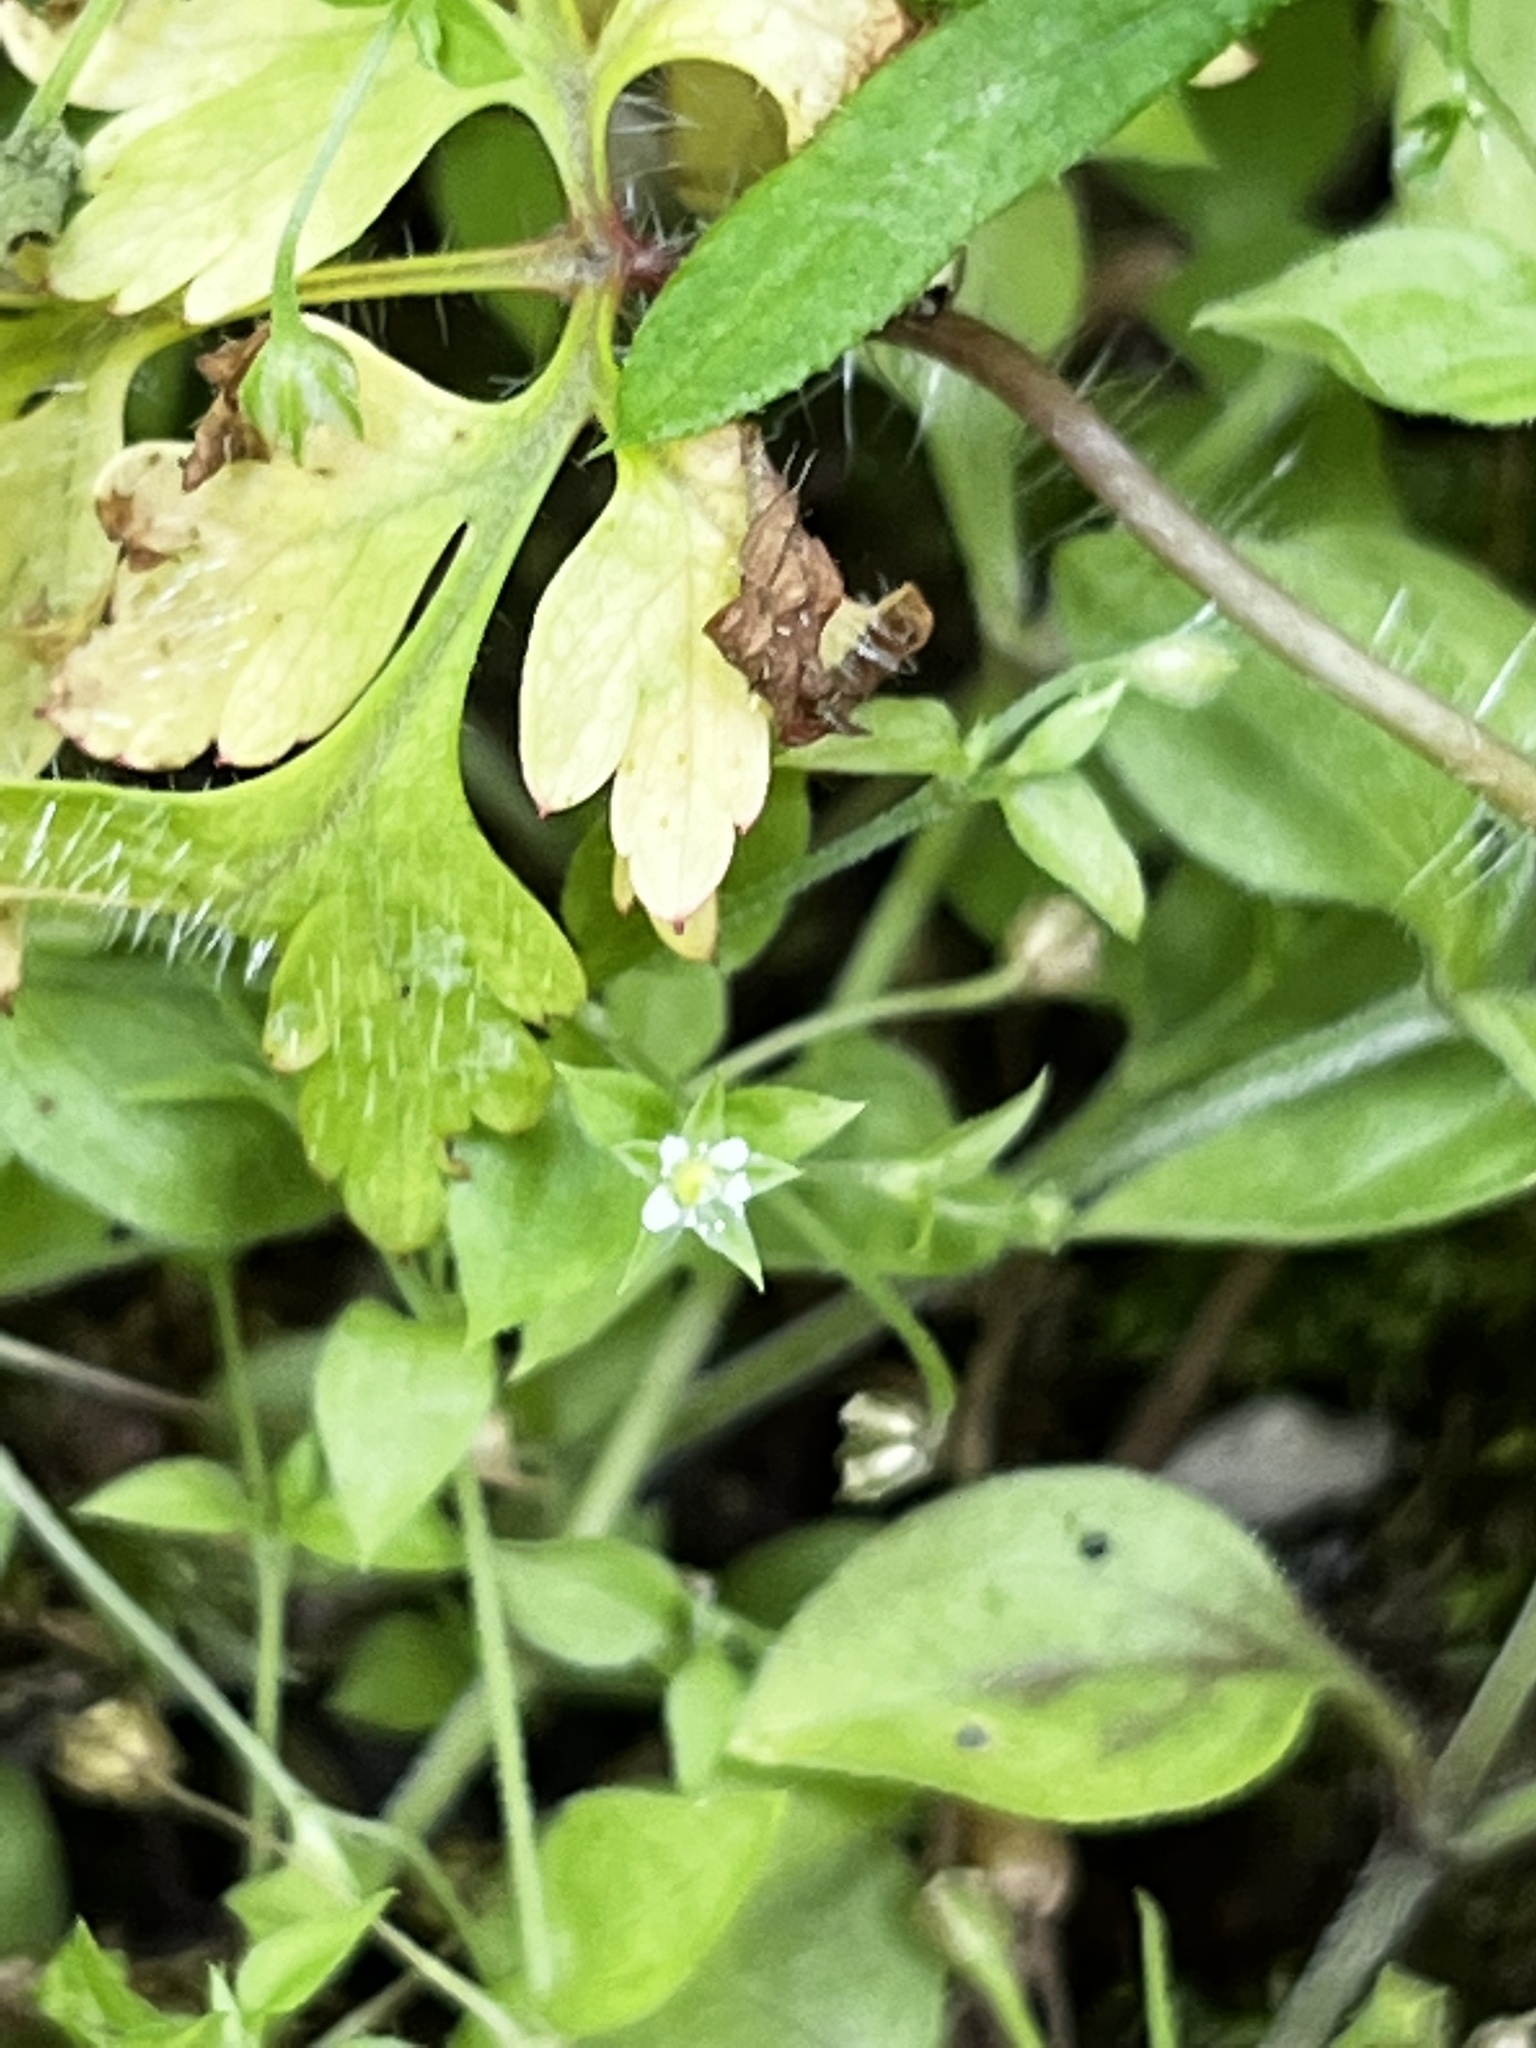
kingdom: Plantae
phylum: Tracheophyta
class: Magnoliopsida
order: Caryophyllales
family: Caryophyllaceae
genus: Moehringia
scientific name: Moehringia trinervia
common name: Three-nerved sandwort
